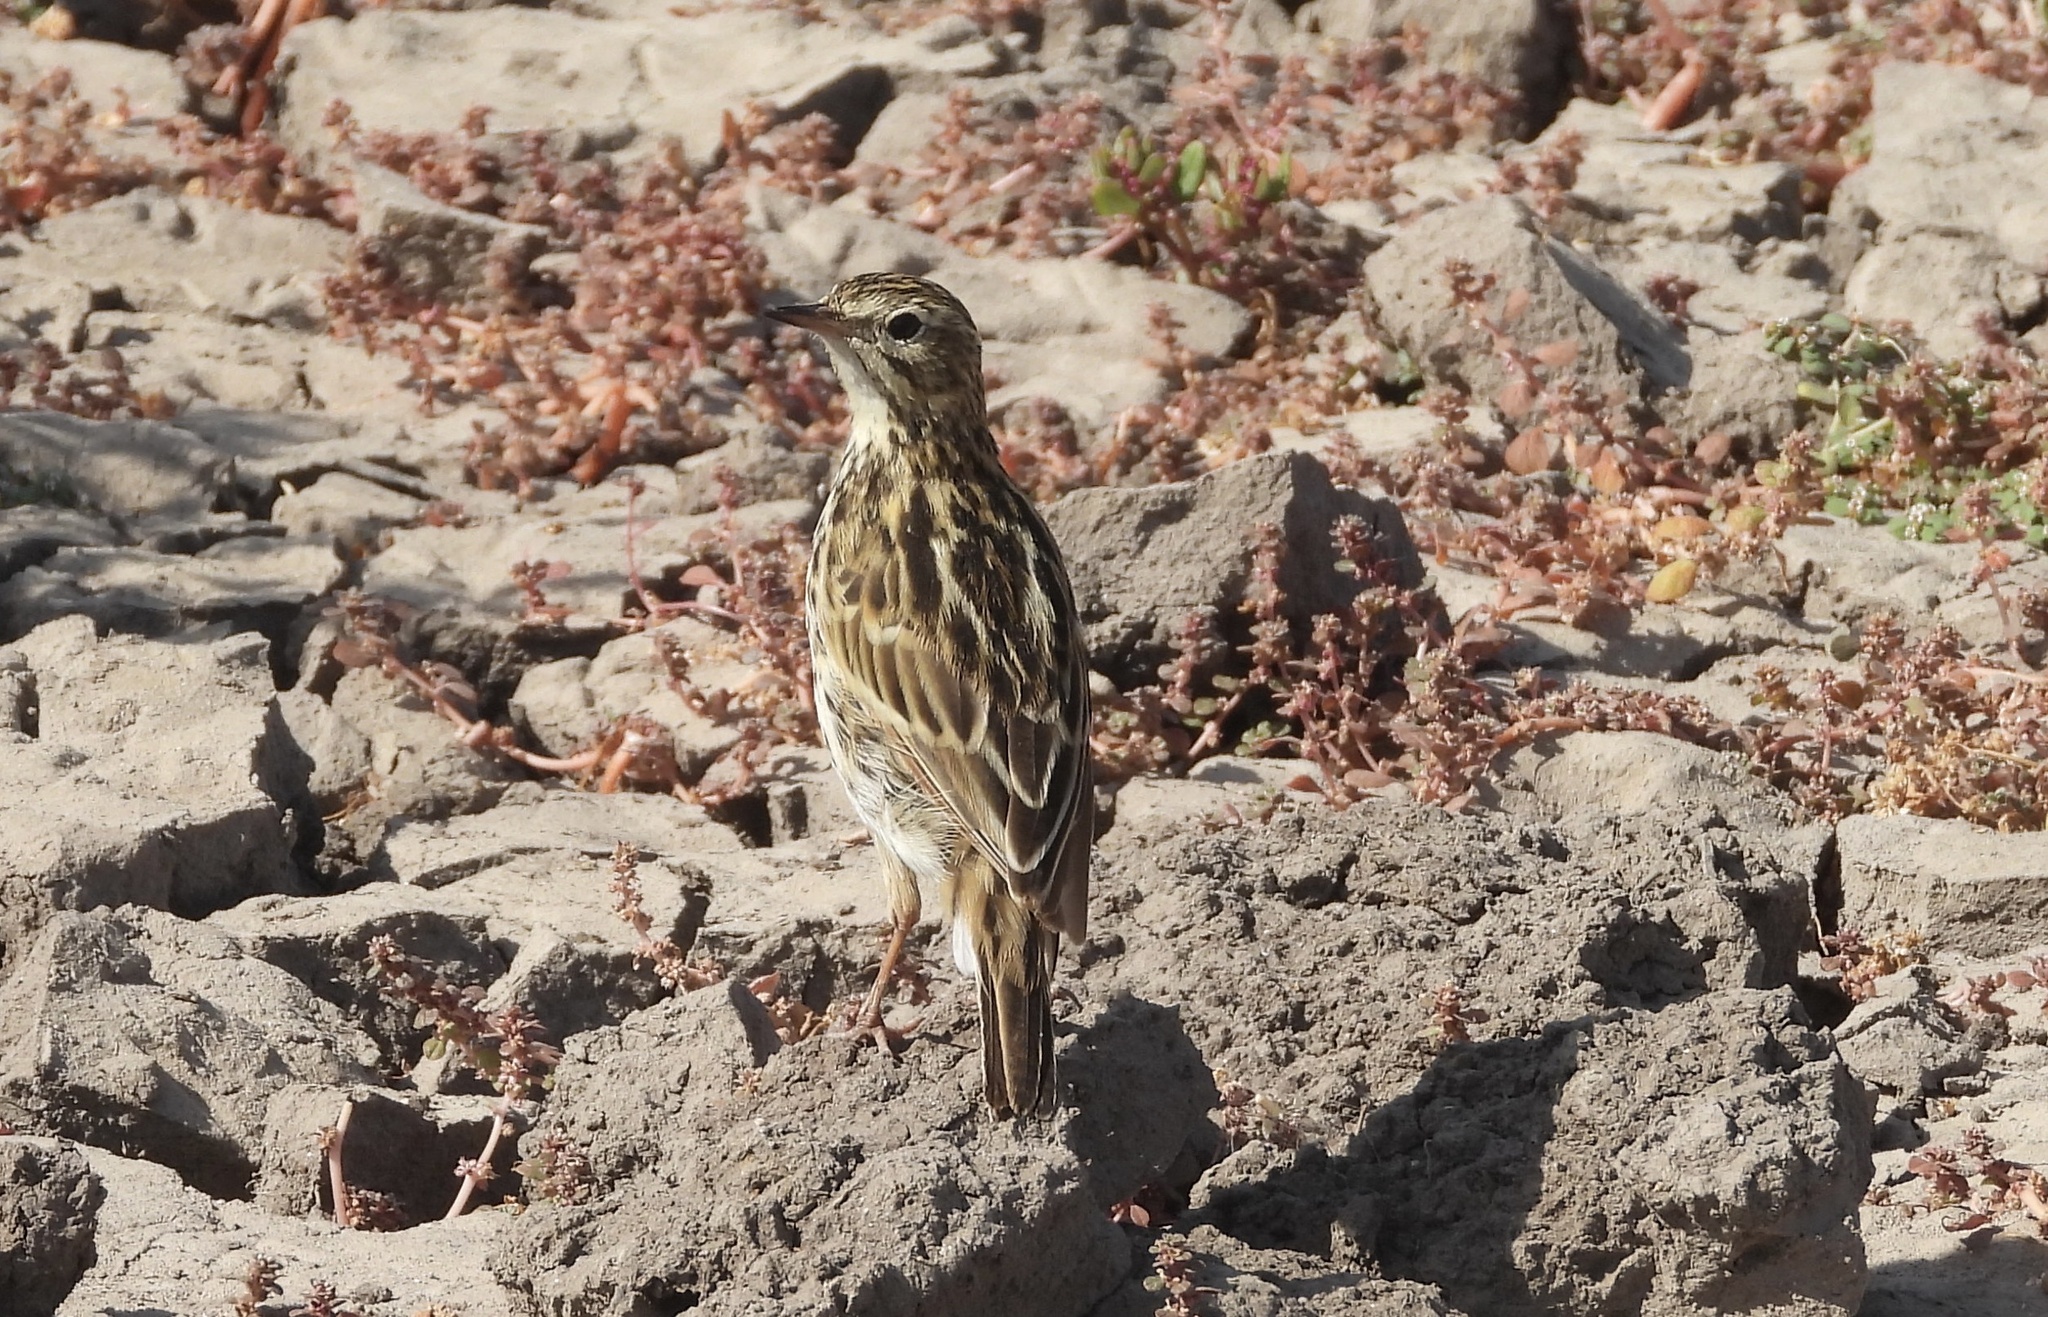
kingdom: Animalia
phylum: Chordata
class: Aves
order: Passeriformes
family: Motacillidae
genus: Anthus
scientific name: Anthus correndera
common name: Correndera pipit
